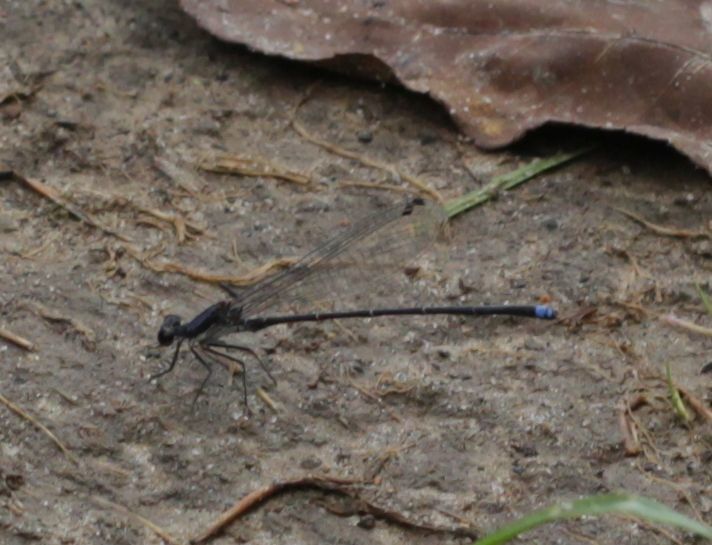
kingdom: Animalia
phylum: Arthropoda
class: Insecta
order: Odonata
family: Coenagrionidae
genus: Argia
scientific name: Argia tibialis
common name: Blue-tipped dancer
